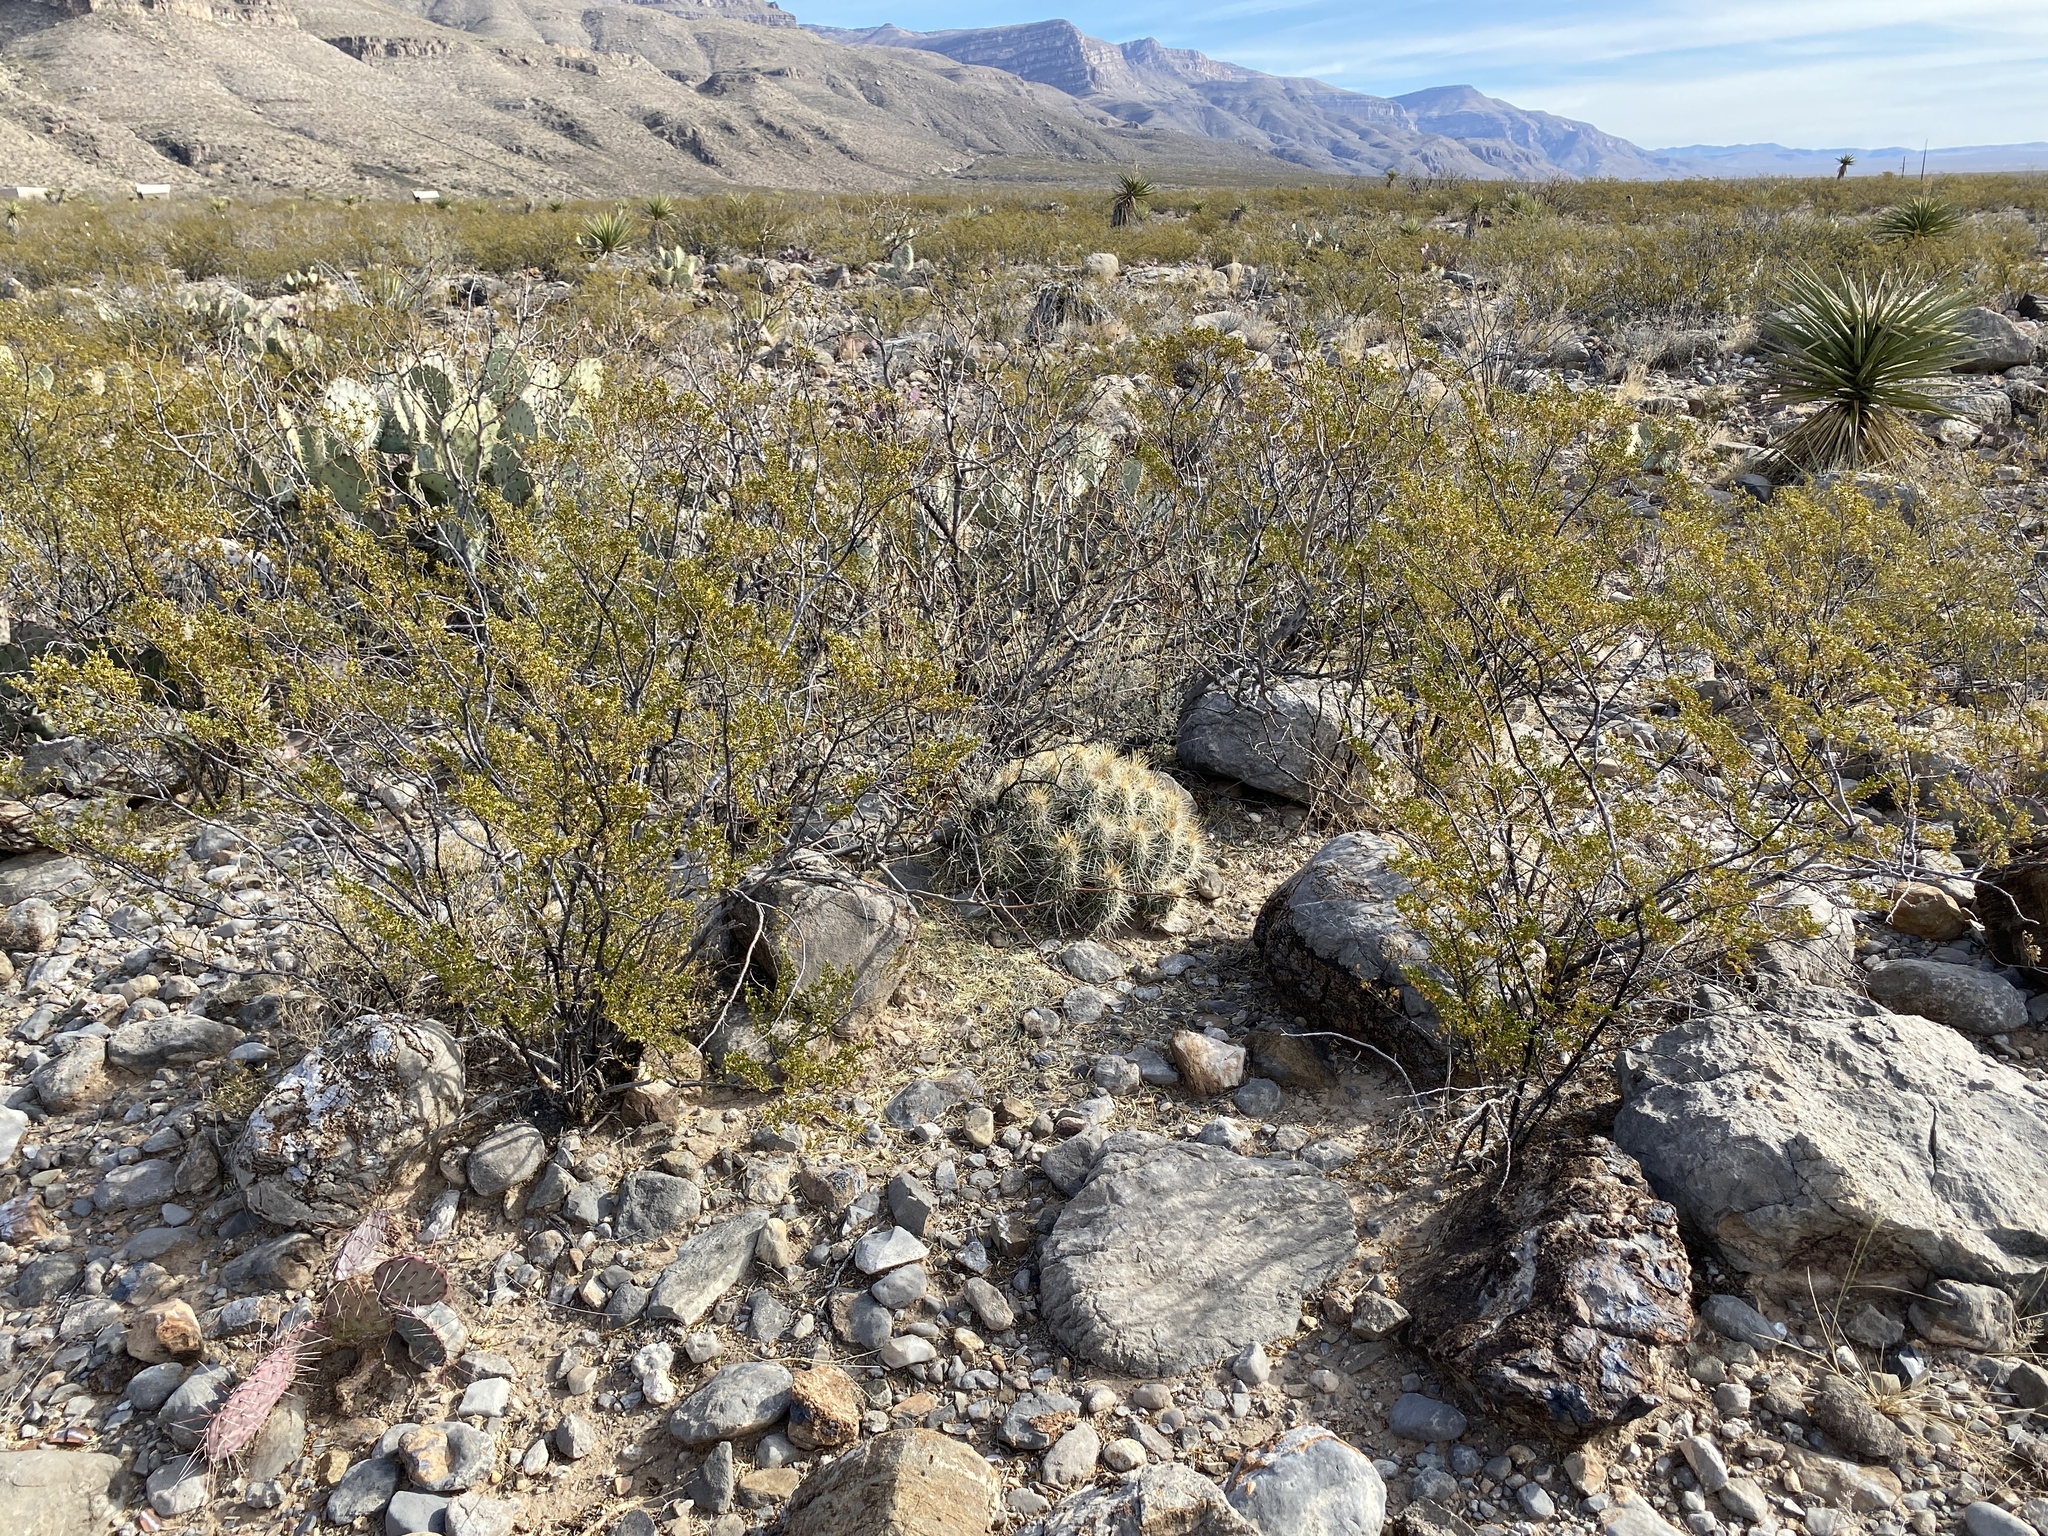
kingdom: Plantae
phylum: Tracheophyta
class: Magnoliopsida
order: Caryophyllales
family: Cactaceae
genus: Echinocereus
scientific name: Echinocereus stramineus
